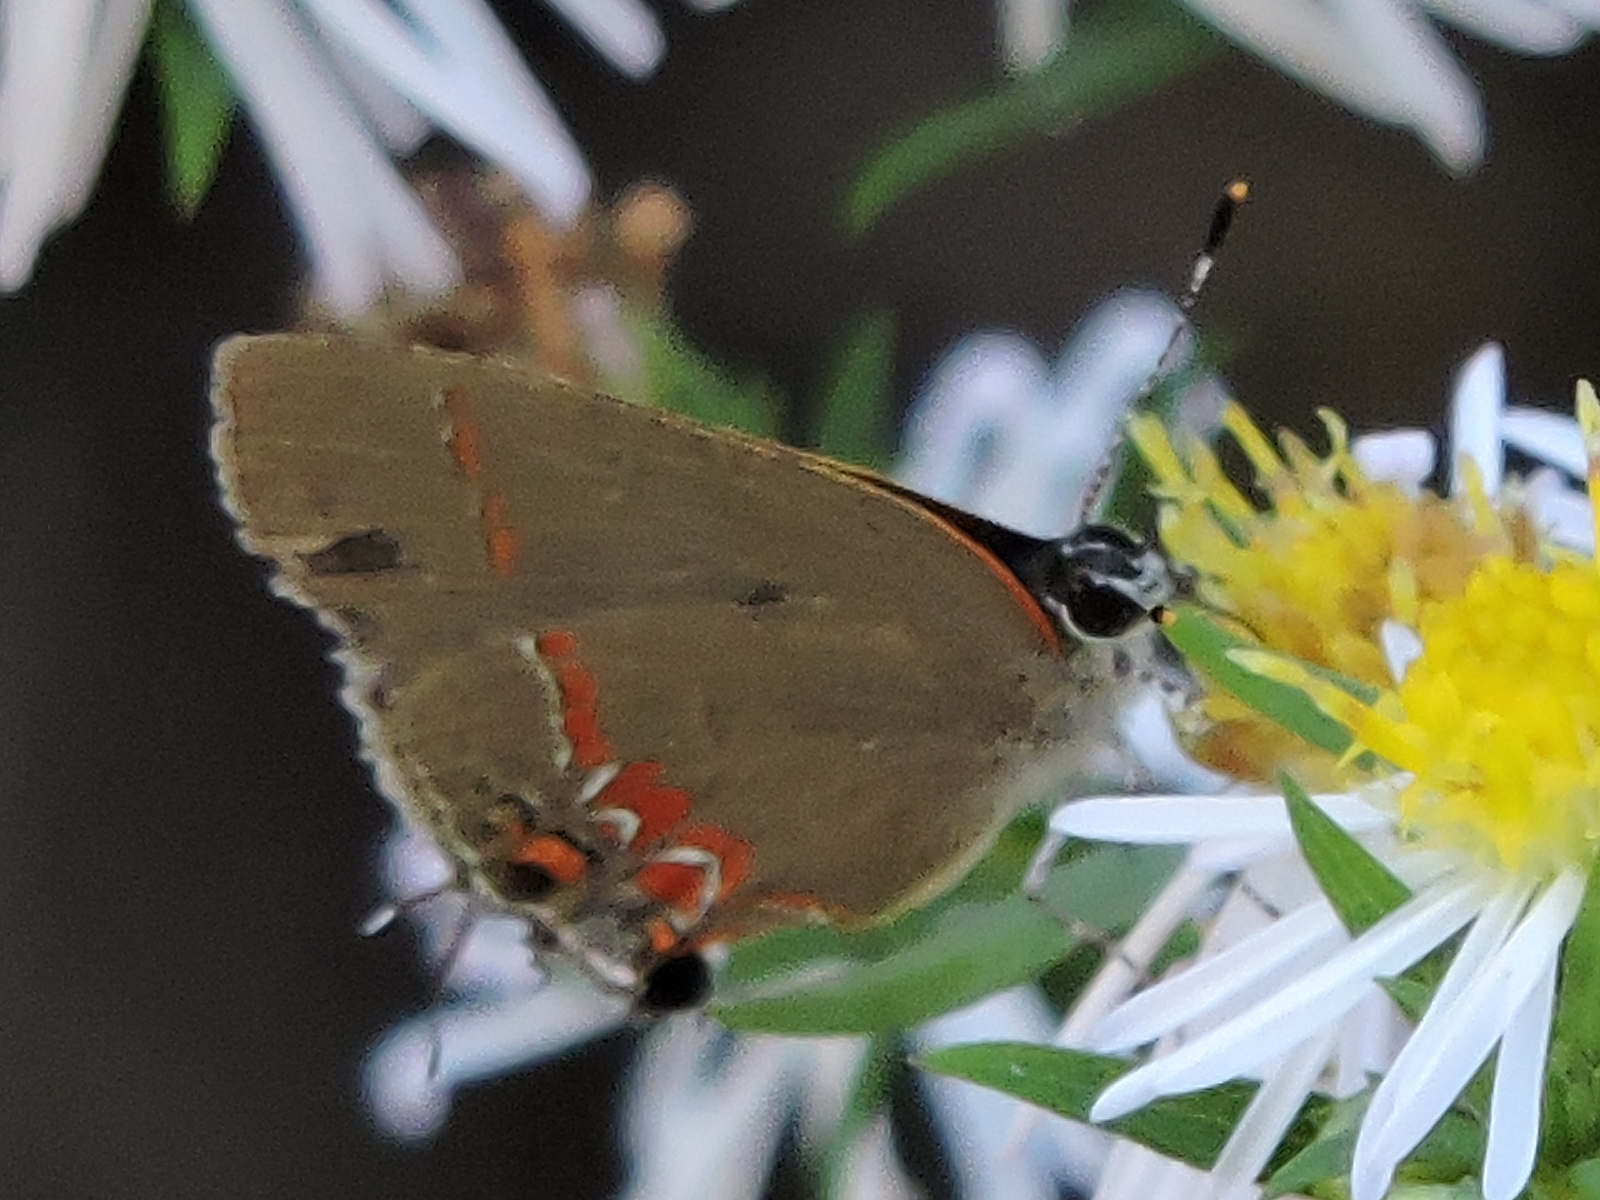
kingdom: Animalia
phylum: Arthropoda
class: Insecta
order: Lepidoptera
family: Lycaenidae
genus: Calycopis
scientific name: Calycopis isobeon
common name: Dusky-blue groundstreak
